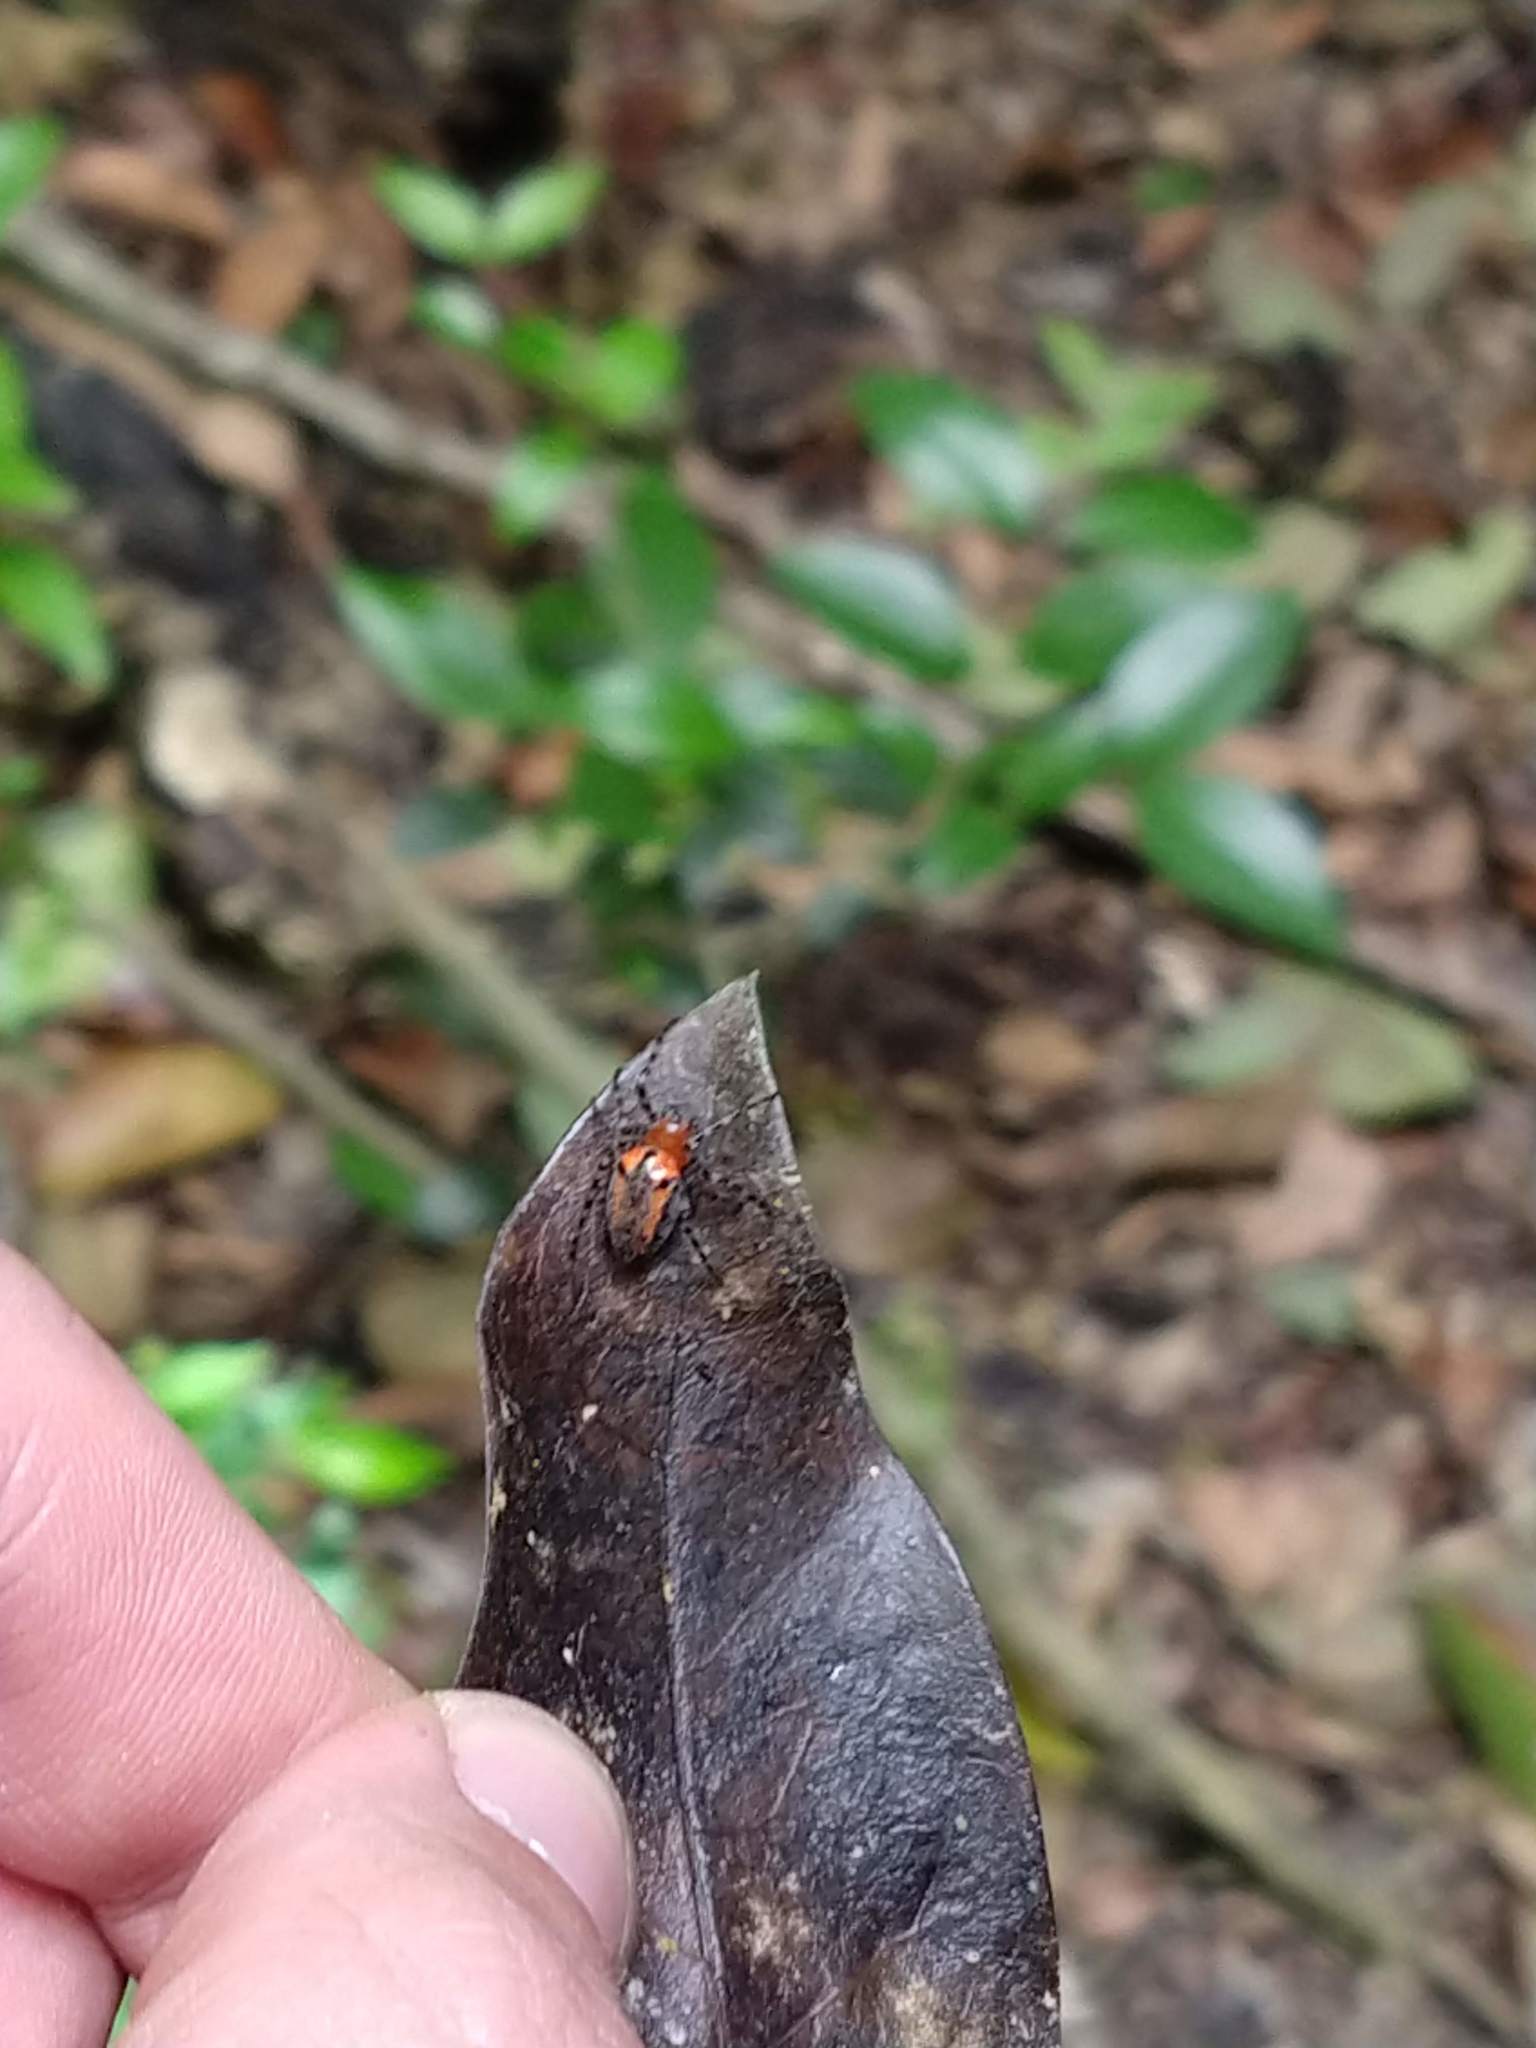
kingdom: Animalia
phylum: Arthropoda
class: Arachnida
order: Araneae
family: Araneidae
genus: Alpaida
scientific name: Alpaida gallardoi
